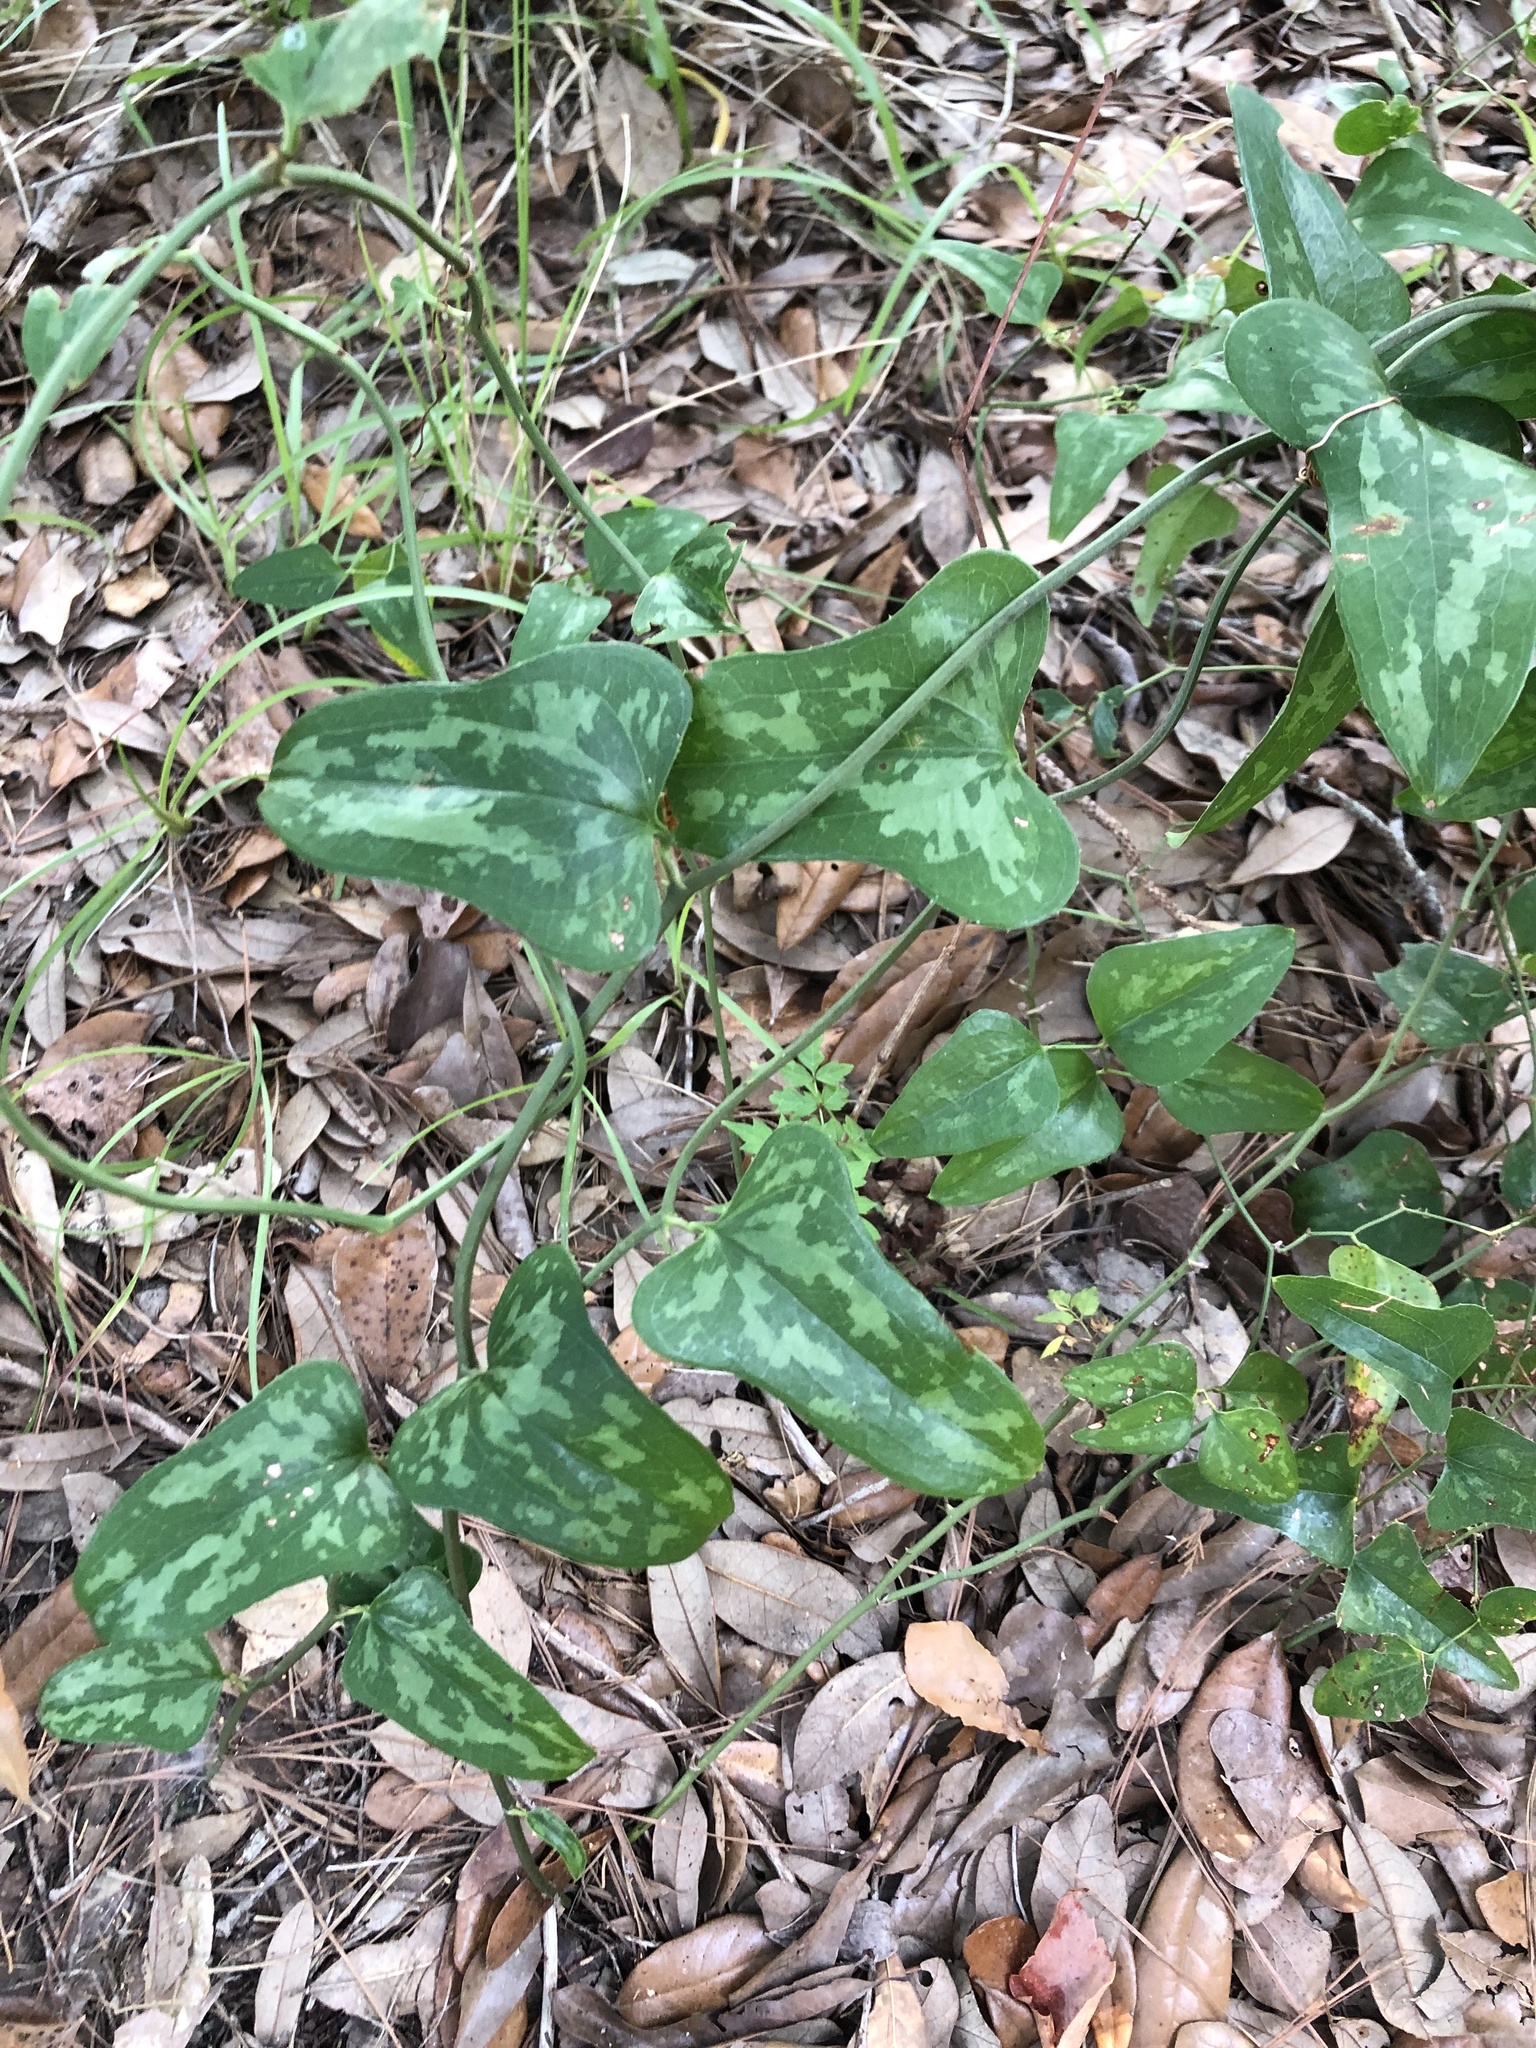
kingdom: Plantae
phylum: Tracheophyta
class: Liliopsida
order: Liliales
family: Smilacaceae
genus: Smilax
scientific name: Smilax bona-nox
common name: Catbrier
